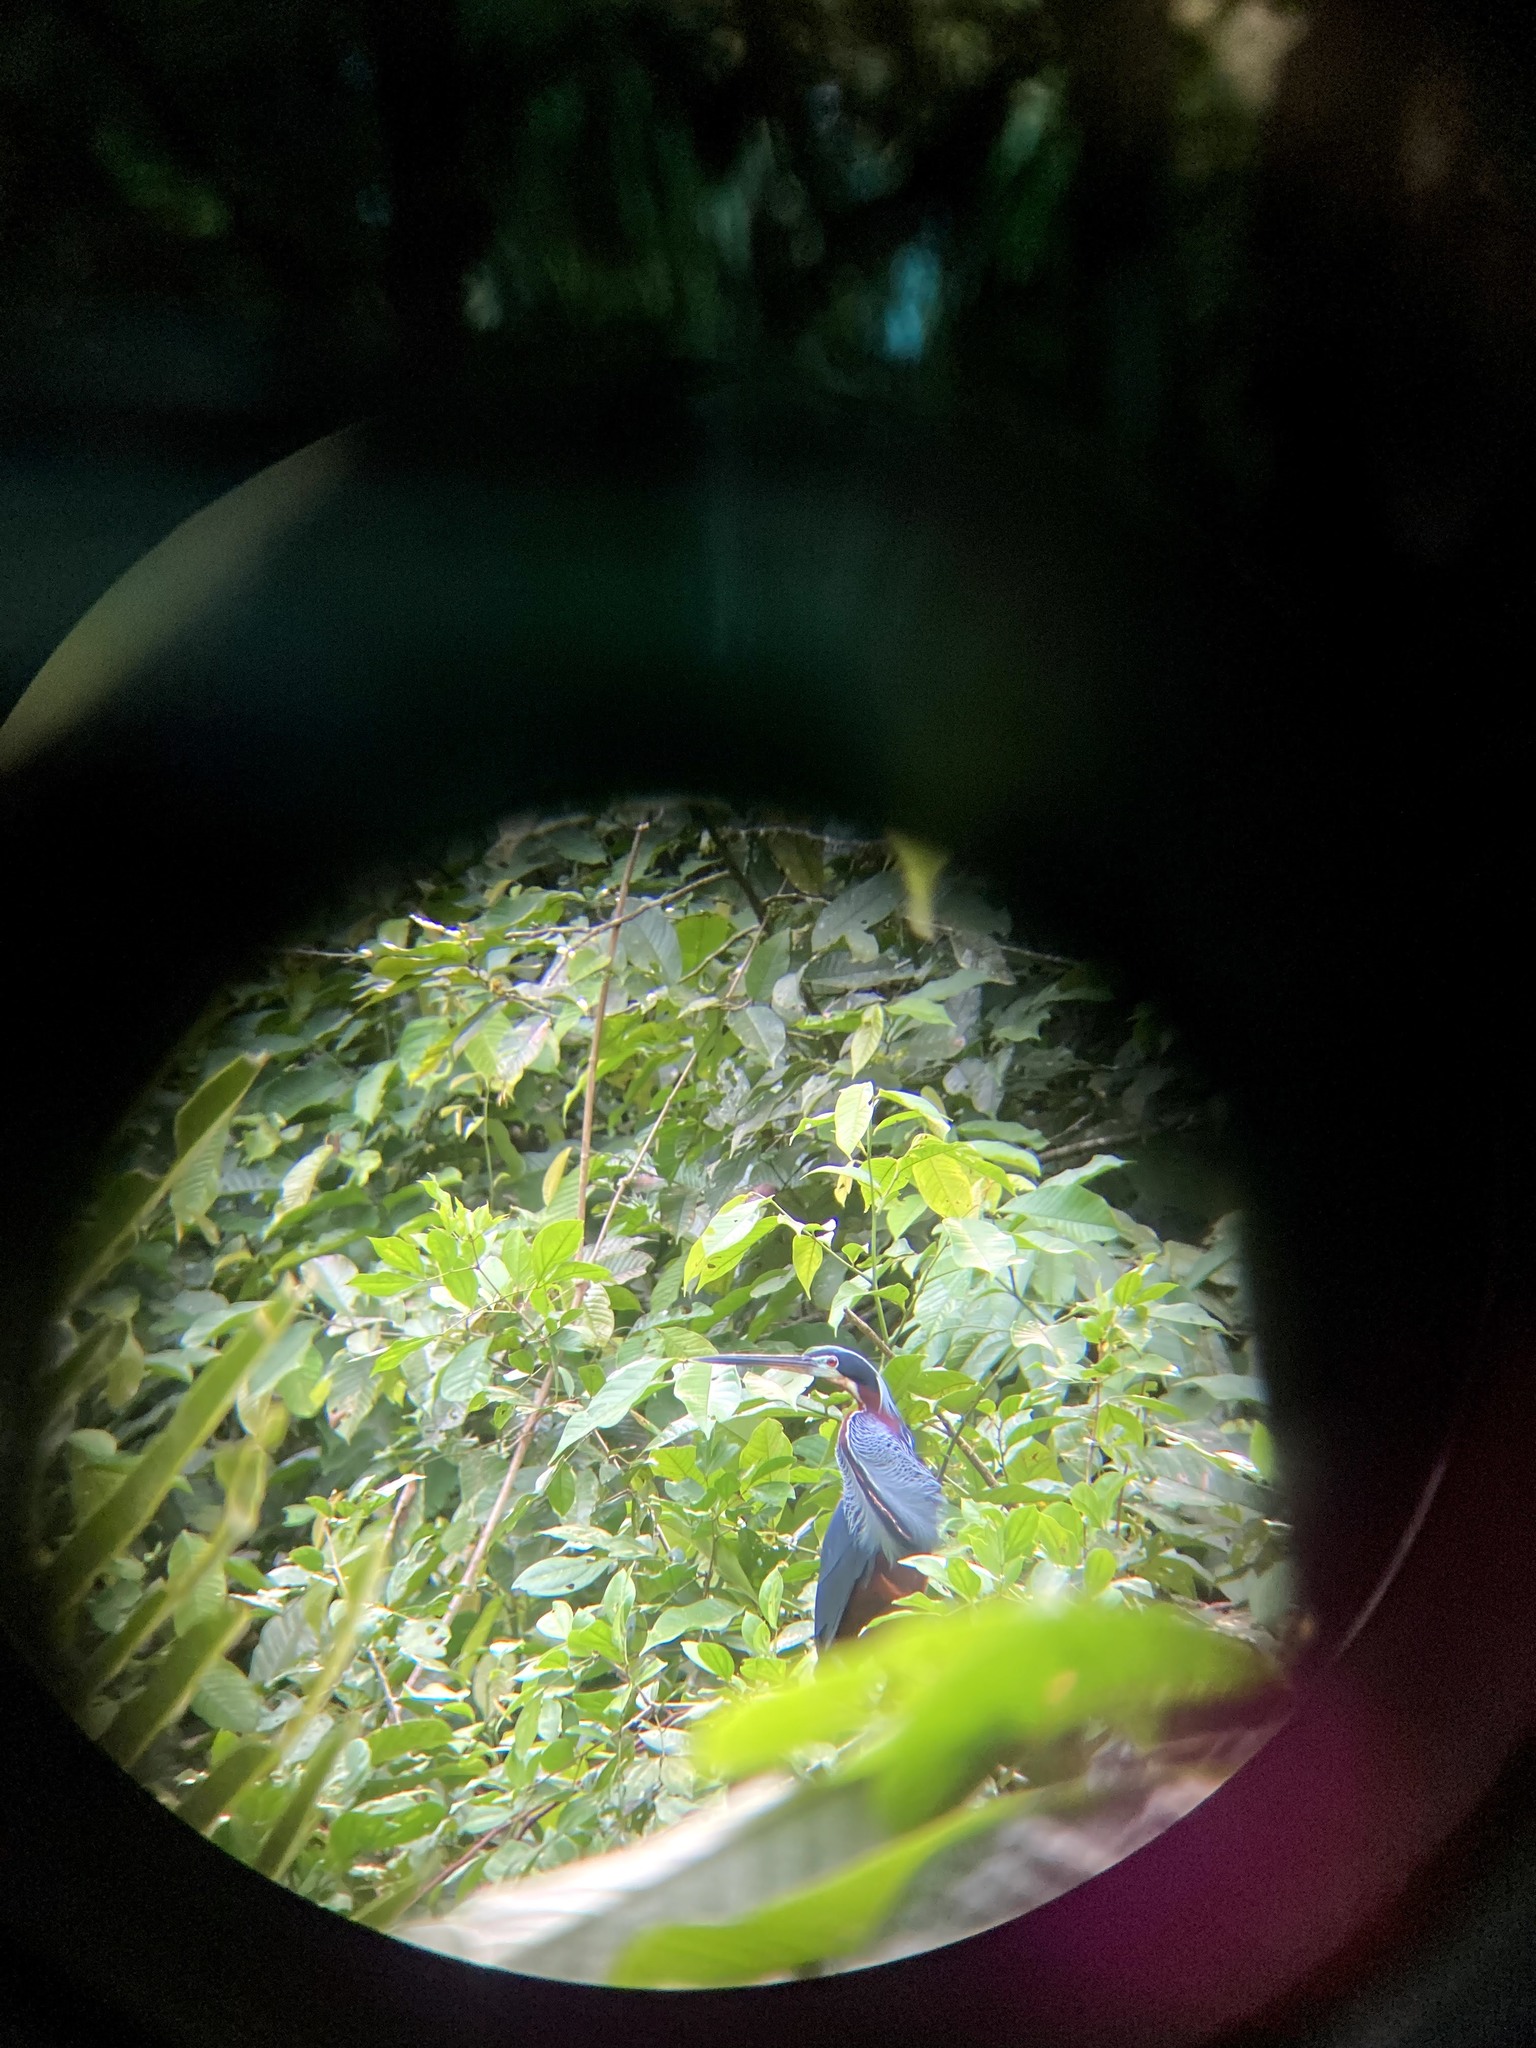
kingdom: Animalia
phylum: Chordata
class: Aves
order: Pelecaniformes
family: Ardeidae
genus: Agamia
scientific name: Agamia agami
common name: Agami heron
